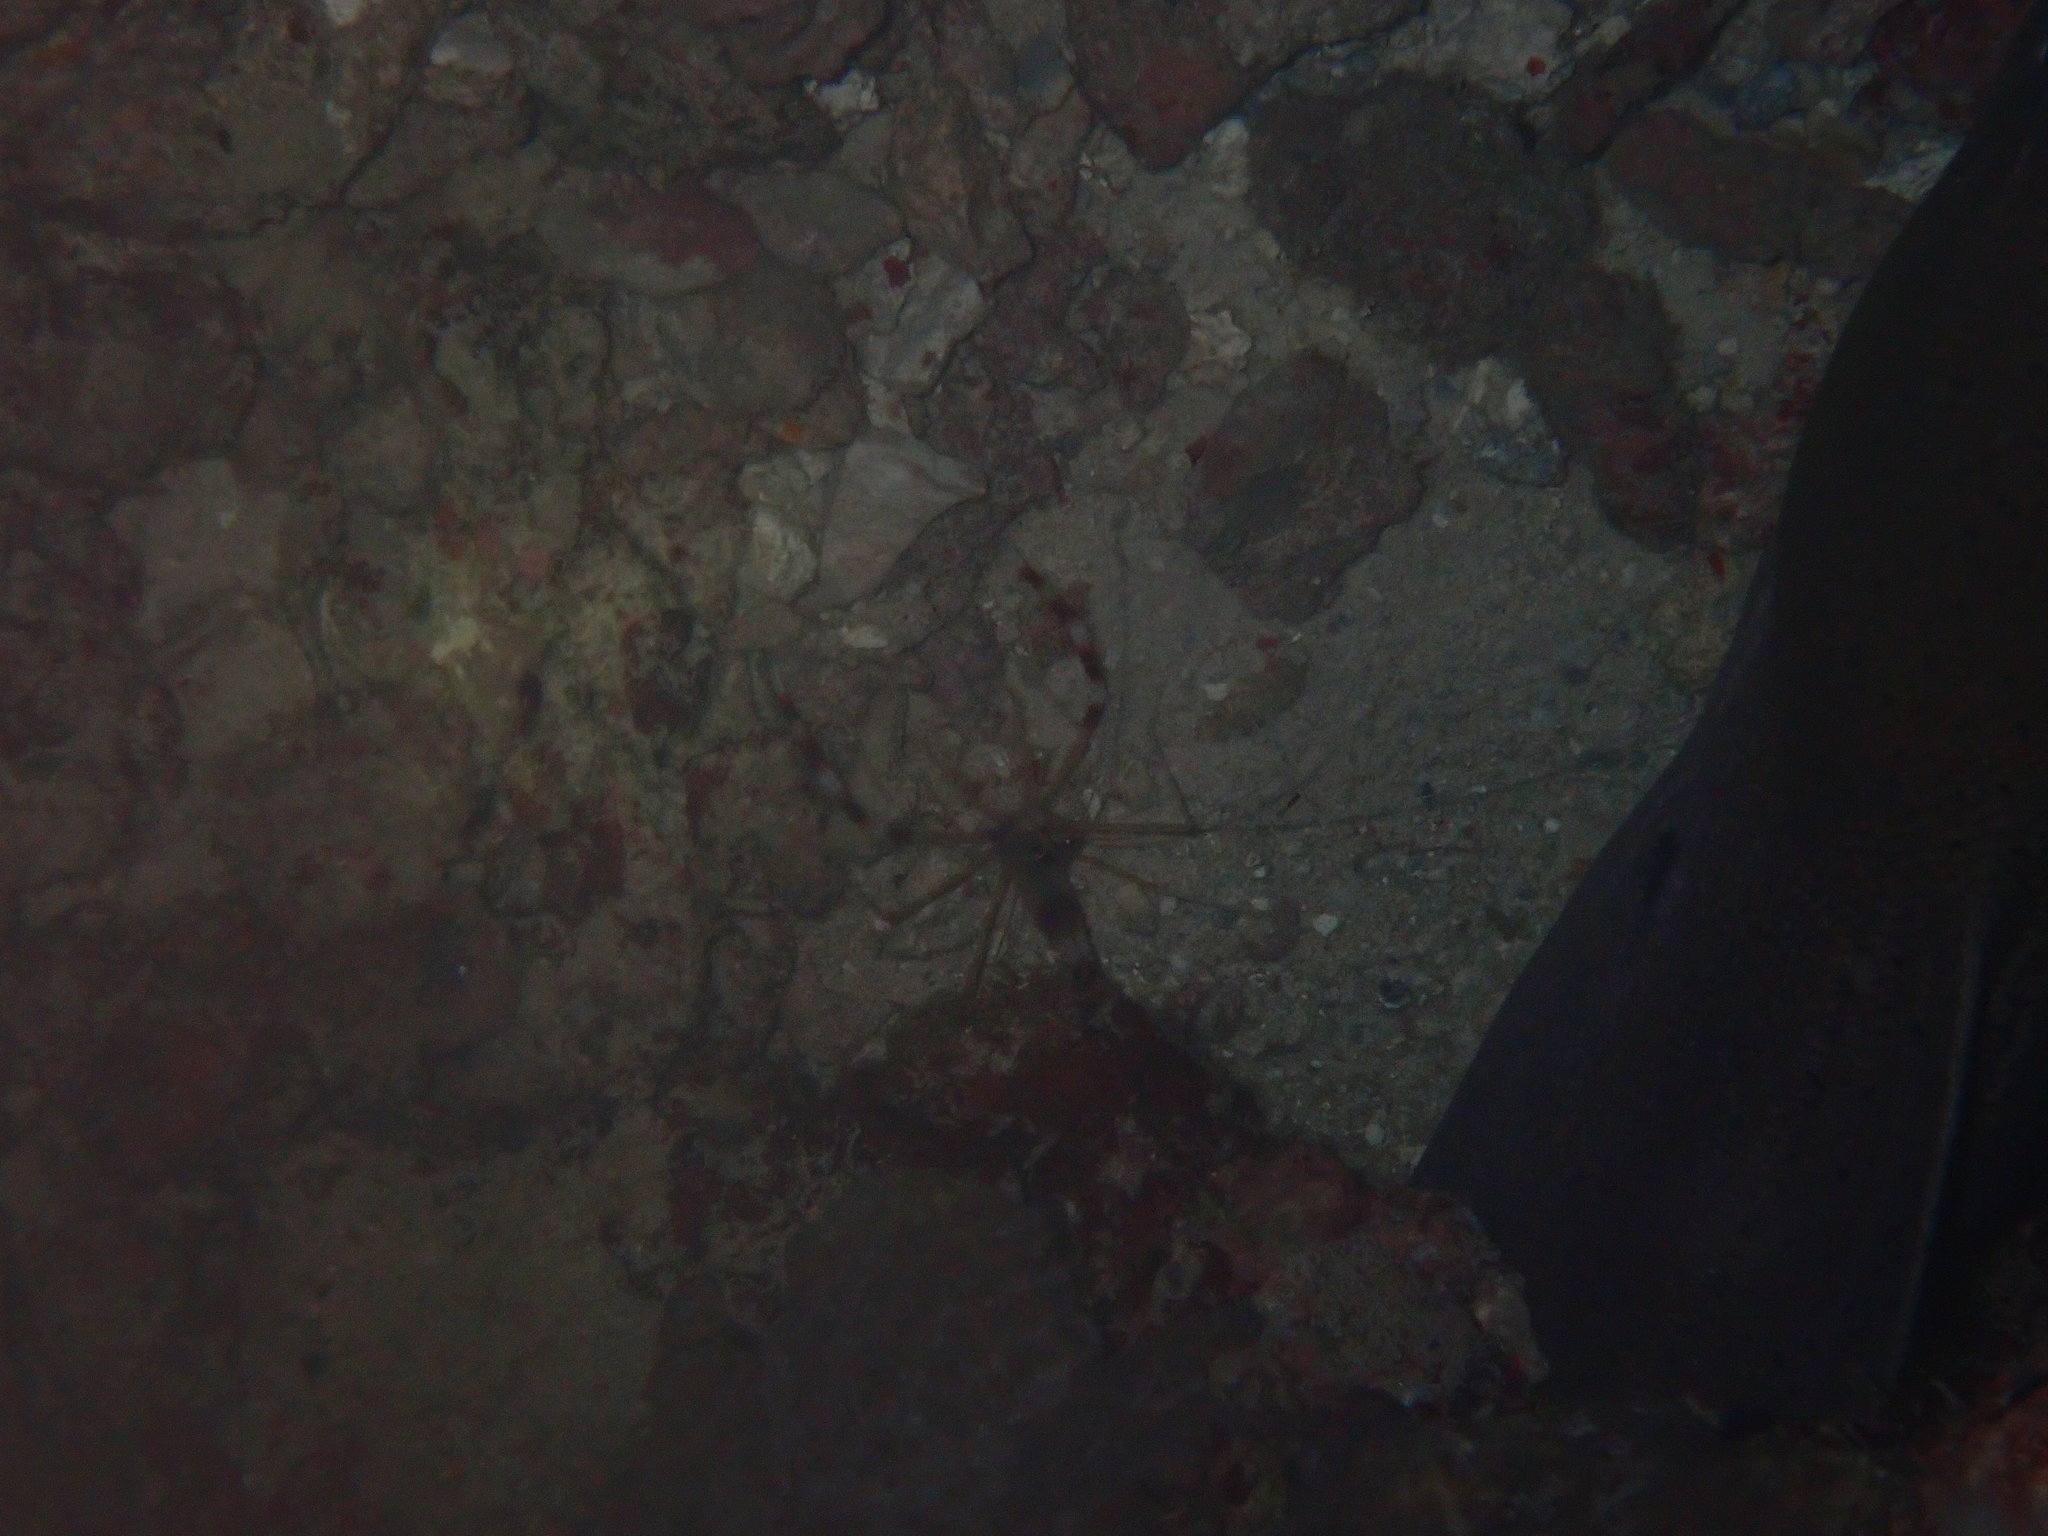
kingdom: Animalia
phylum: Arthropoda
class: Malacostraca
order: Decapoda
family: Stenopodidae
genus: Stenopus
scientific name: Stenopus hispidus
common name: Banded coral shrimp
